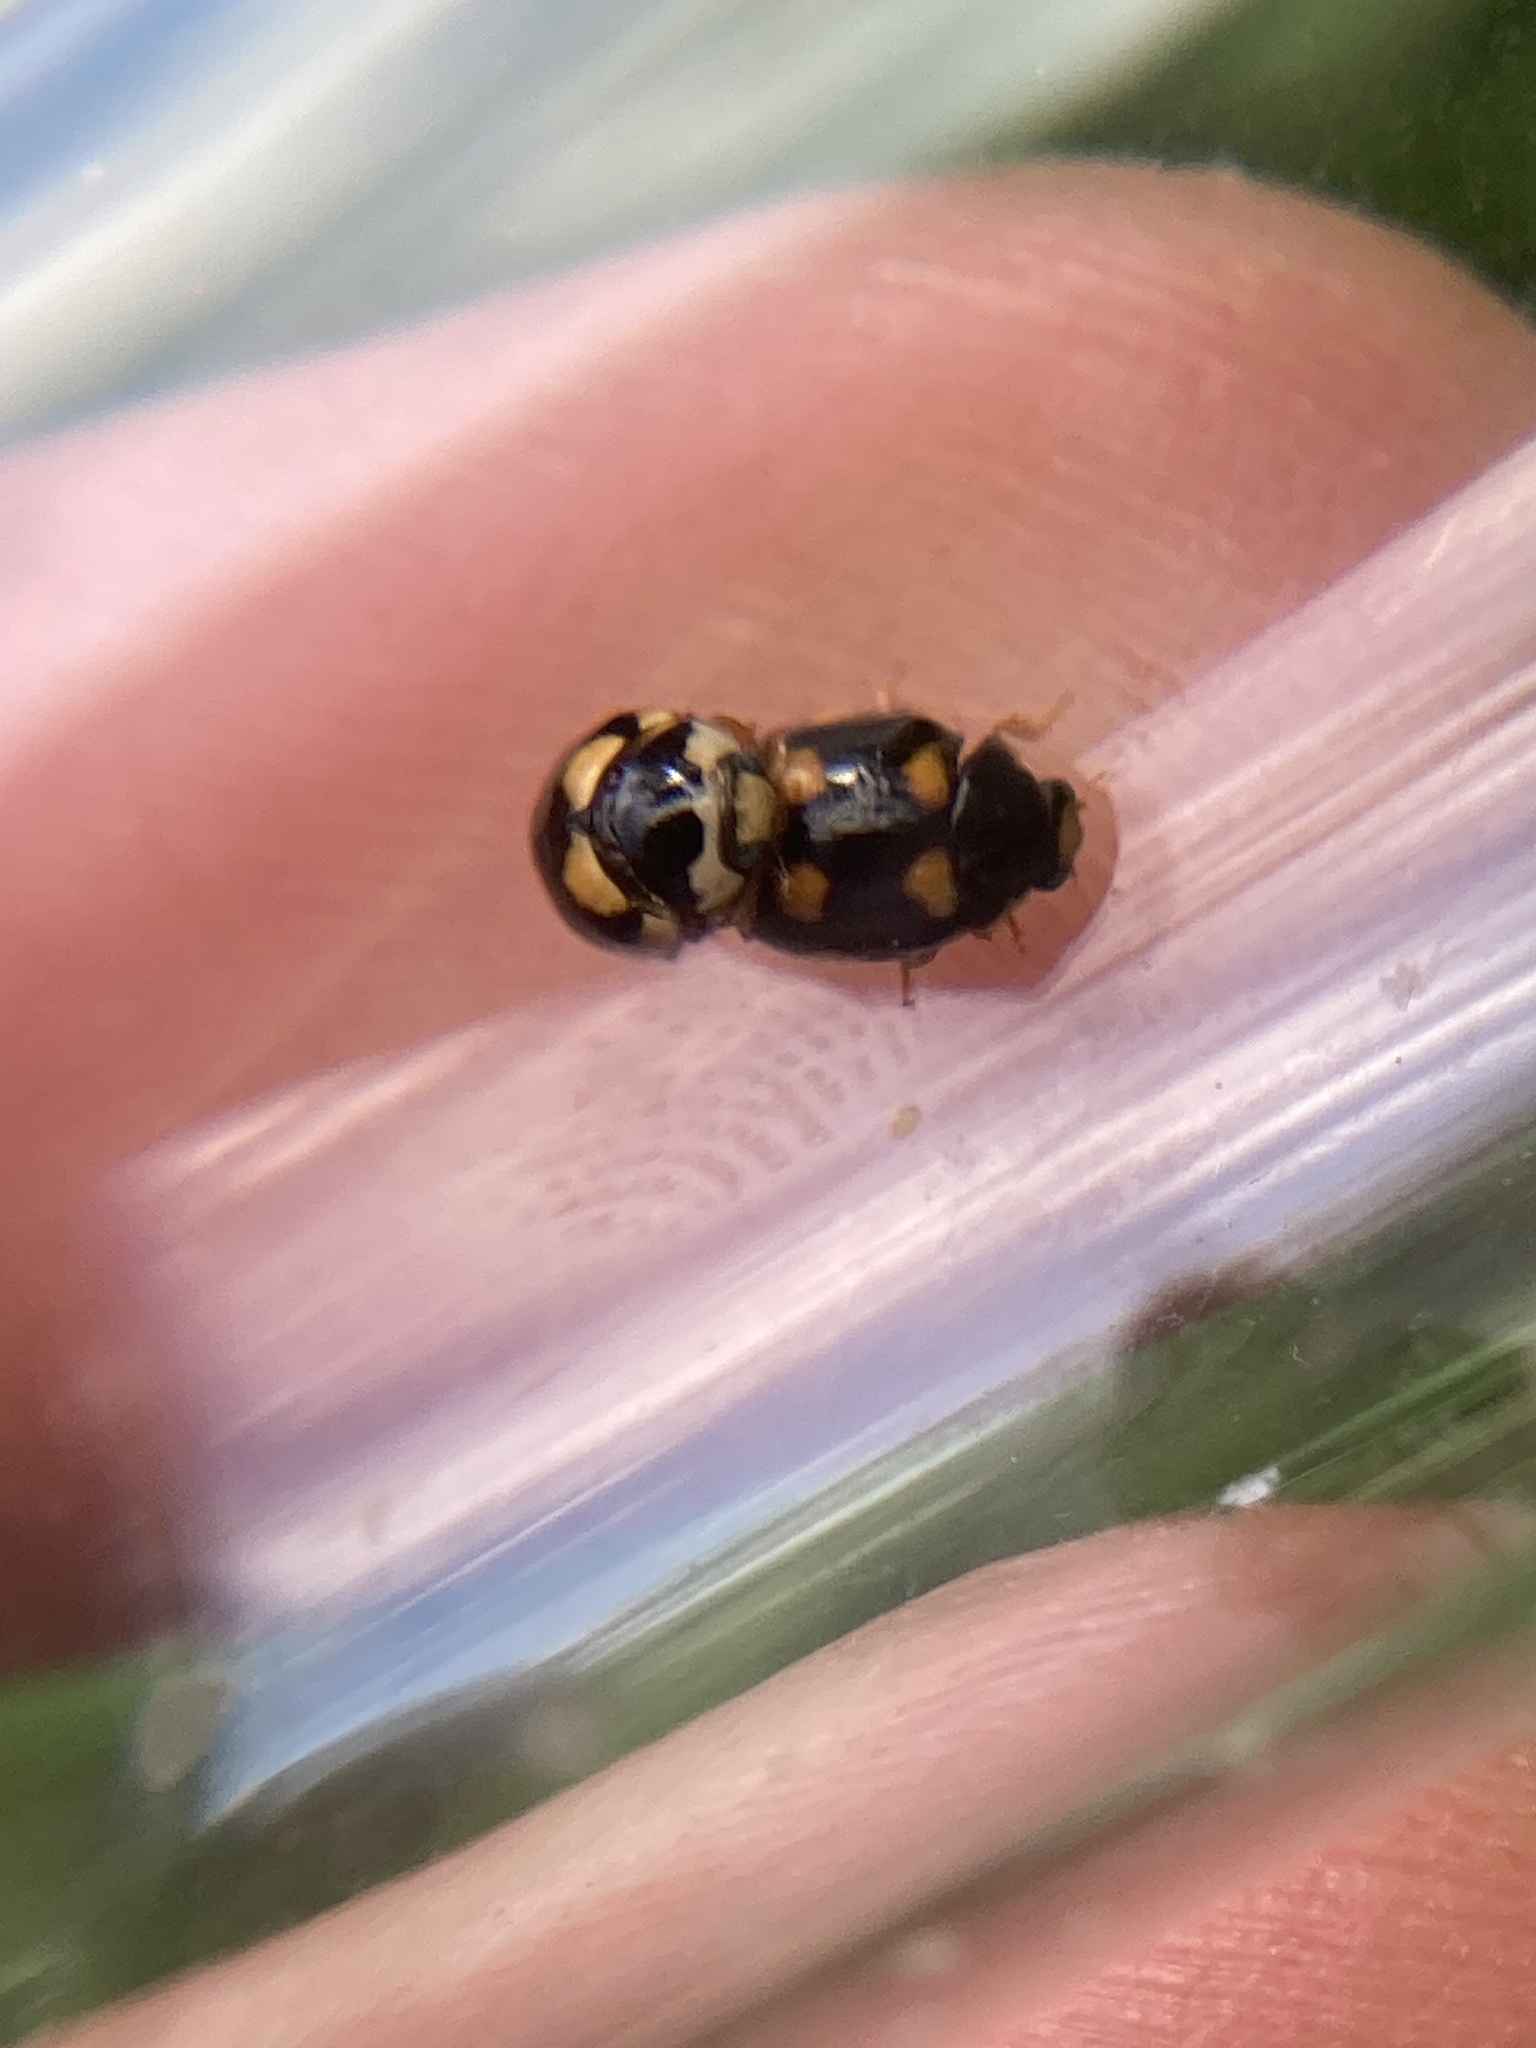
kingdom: Animalia
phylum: Arthropoda
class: Insecta
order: Coleoptera
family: Coccinellidae
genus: Brachiacantha
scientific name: Brachiacantha ursina
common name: Ursine spurleg lady beetle
